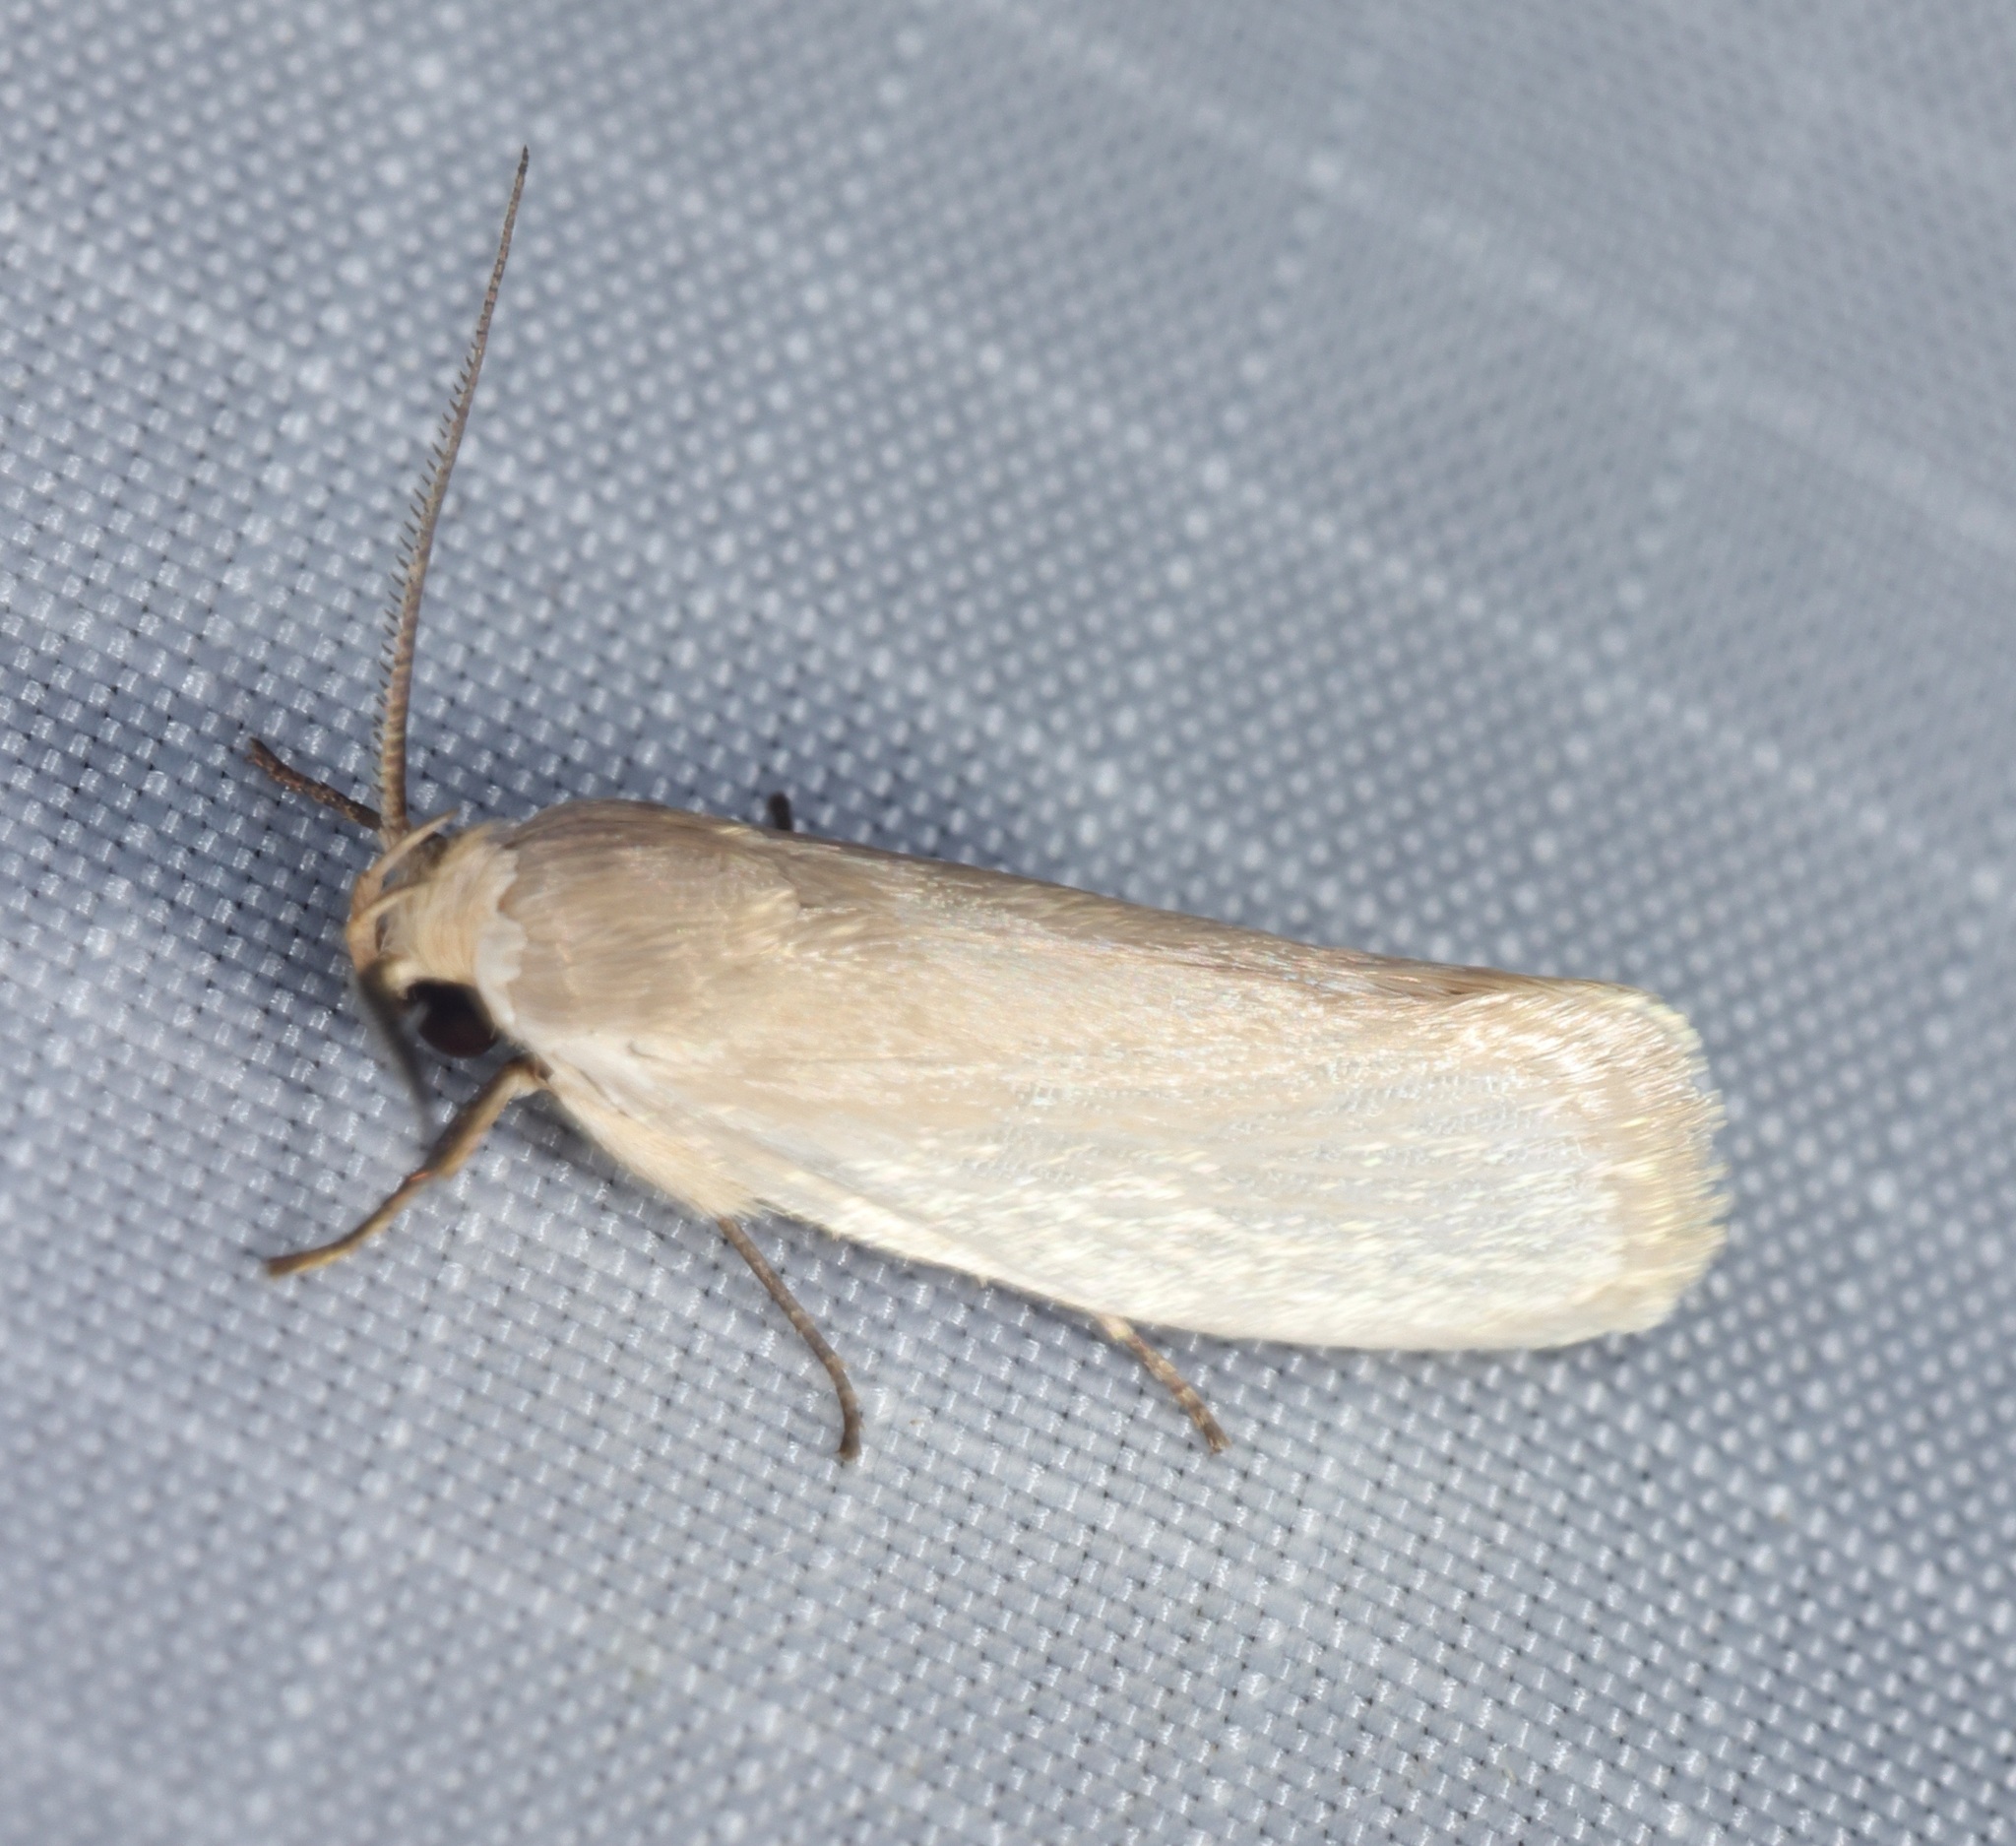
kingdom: Animalia
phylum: Arthropoda
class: Insecta
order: Lepidoptera
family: Xyloryctidae
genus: Athrypsiastis
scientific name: Athrypsiastis salva
